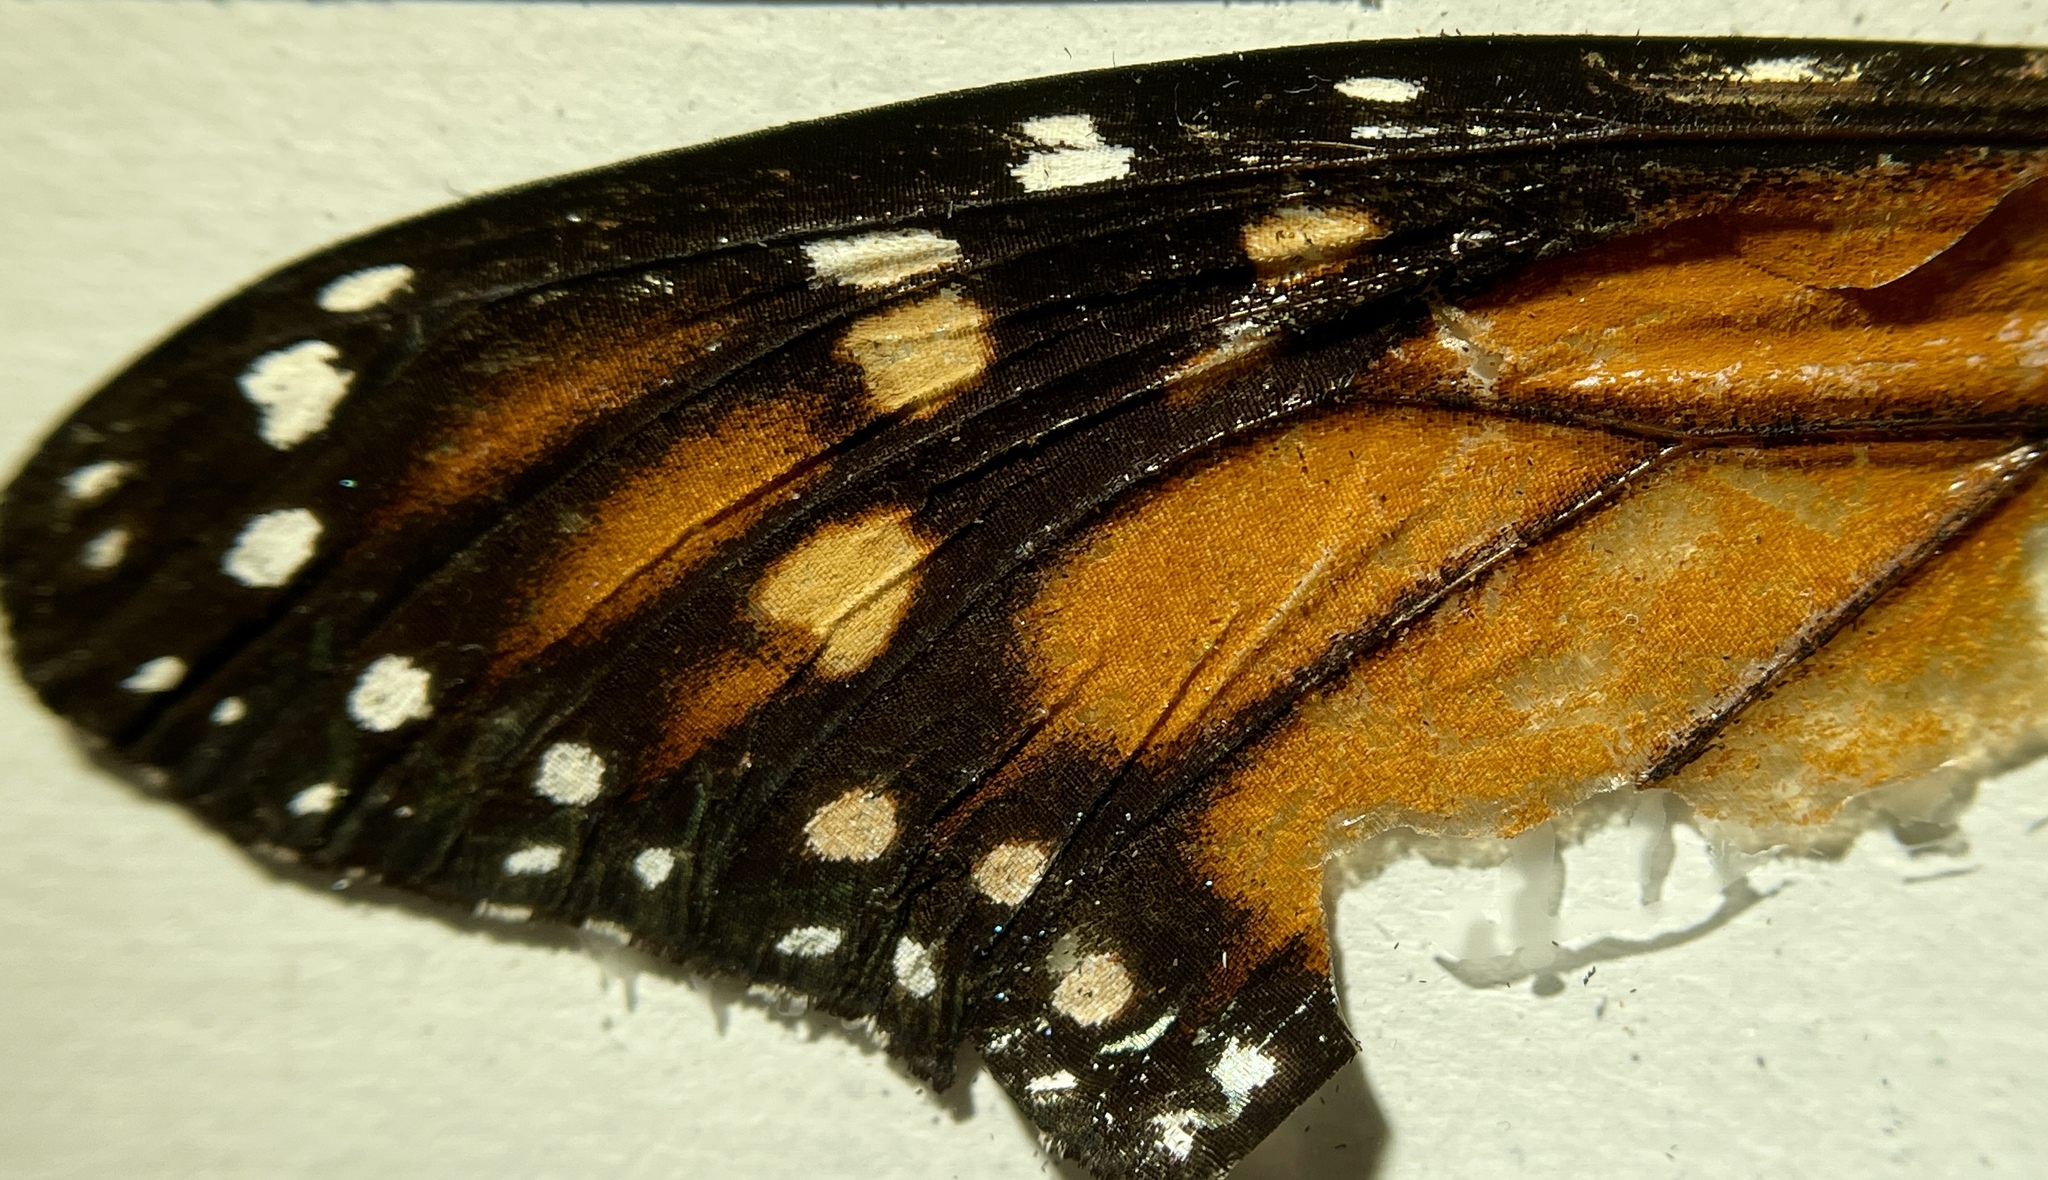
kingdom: Animalia
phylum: Arthropoda
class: Insecta
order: Lepidoptera
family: Nymphalidae
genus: Danaus
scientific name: Danaus plexippus
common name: Monarch
